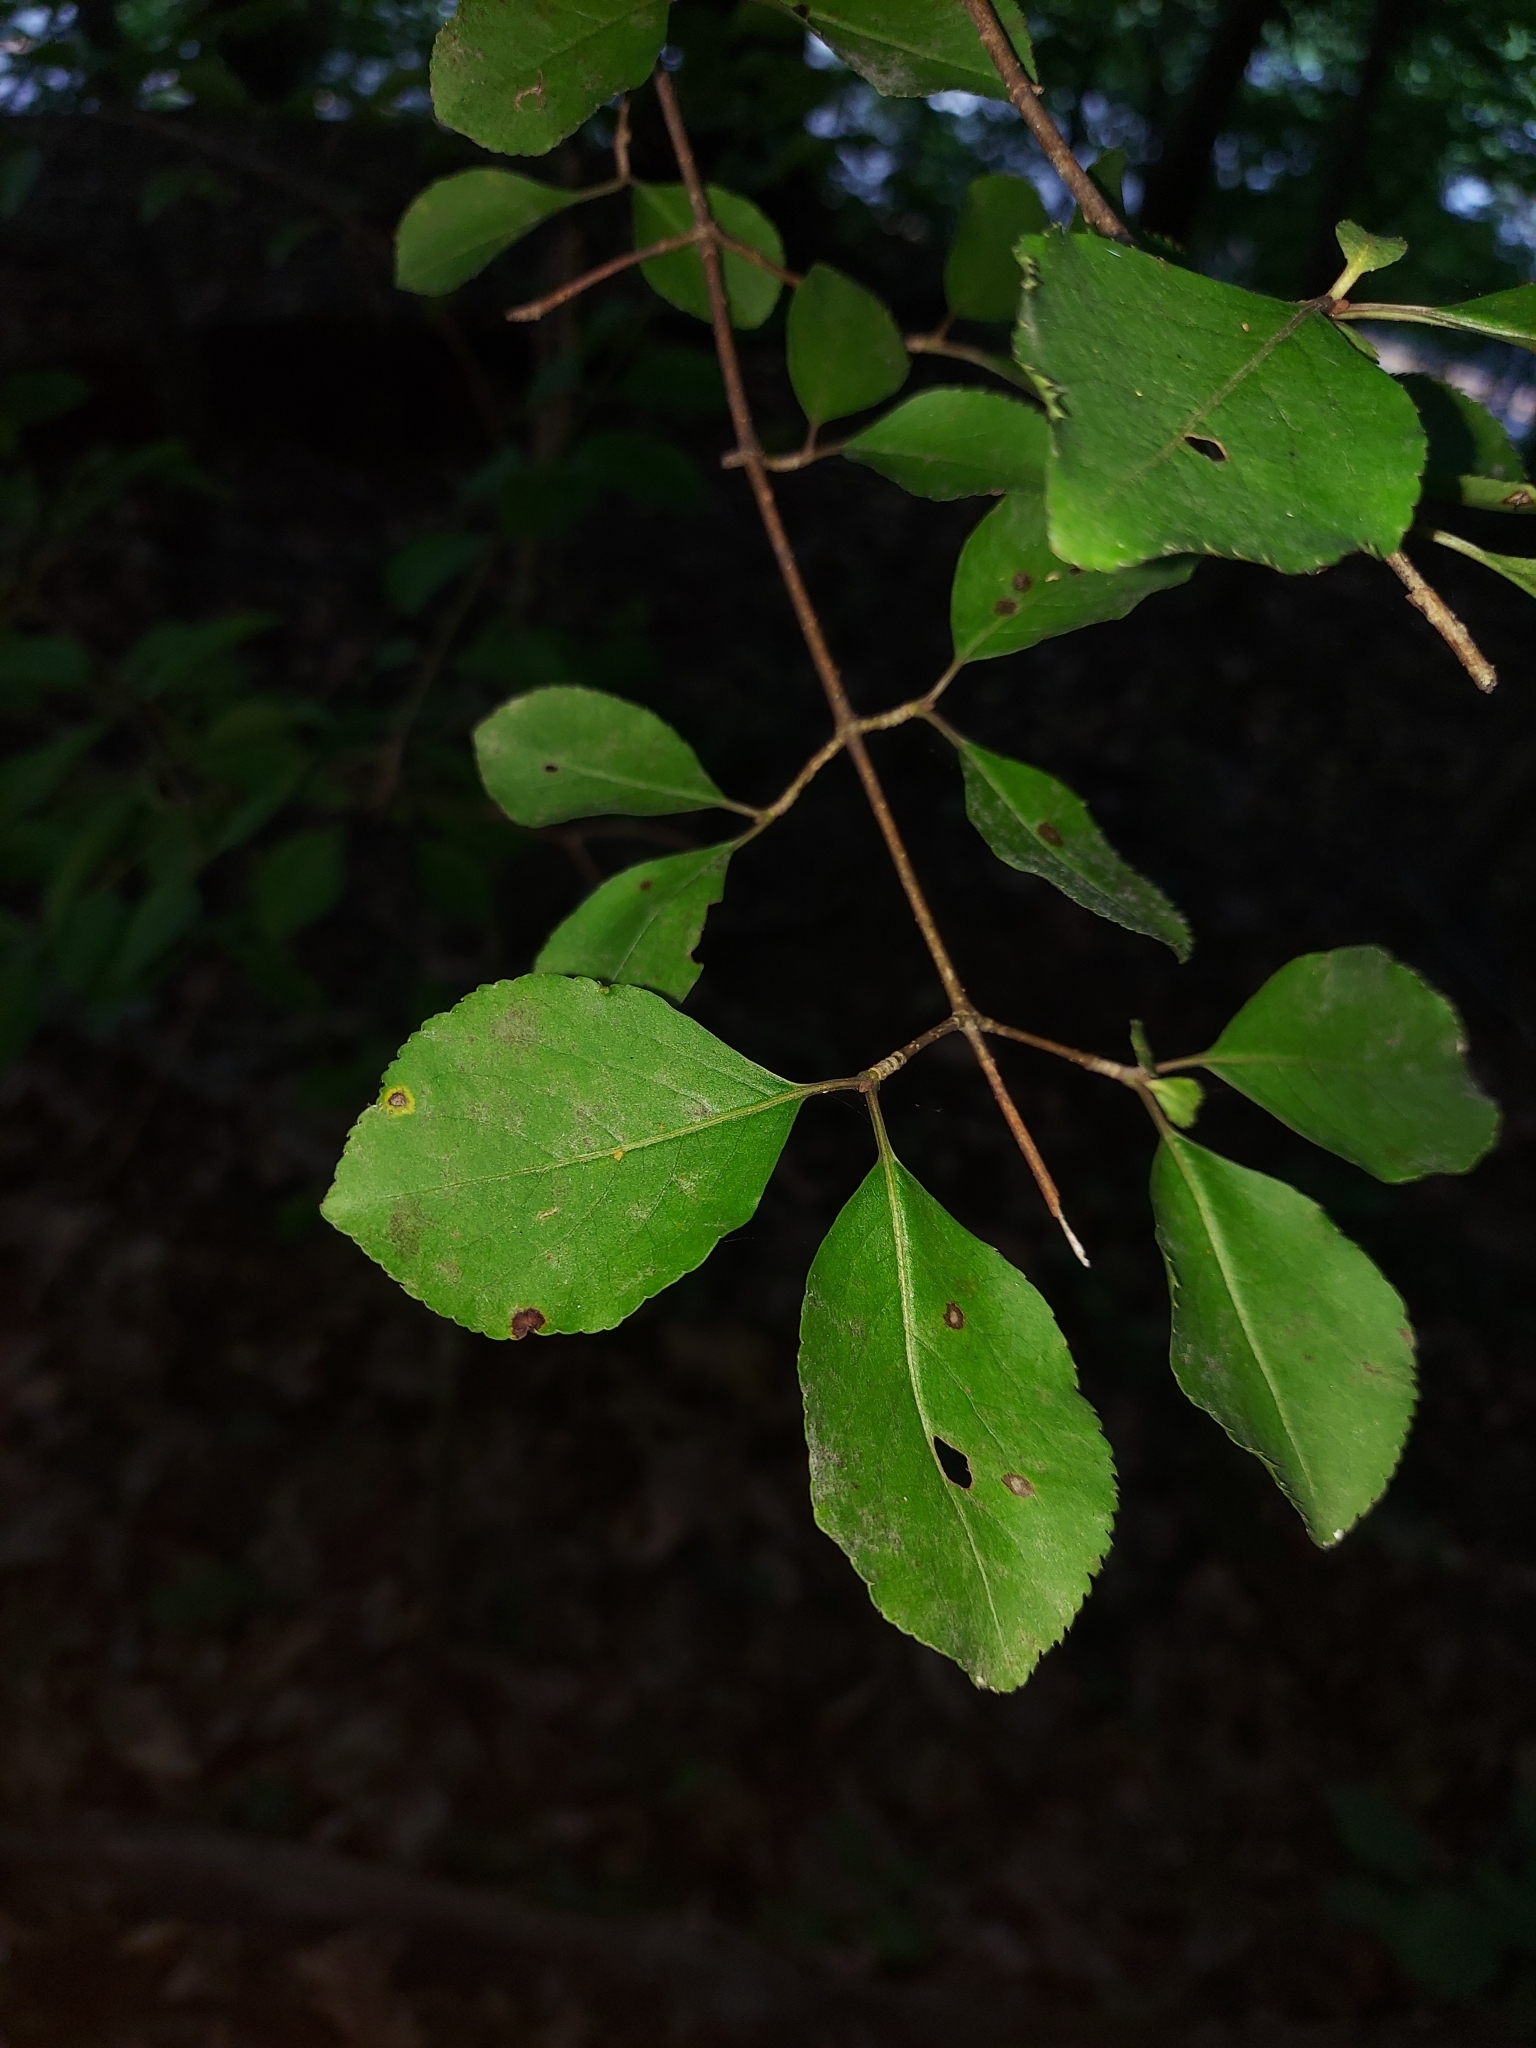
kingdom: Plantae
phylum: Tracheophyta
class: Magnoliopsida
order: Dipsacales
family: Viburnaceae
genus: Viburnum
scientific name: Viburnum prunifolium
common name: Black haw
